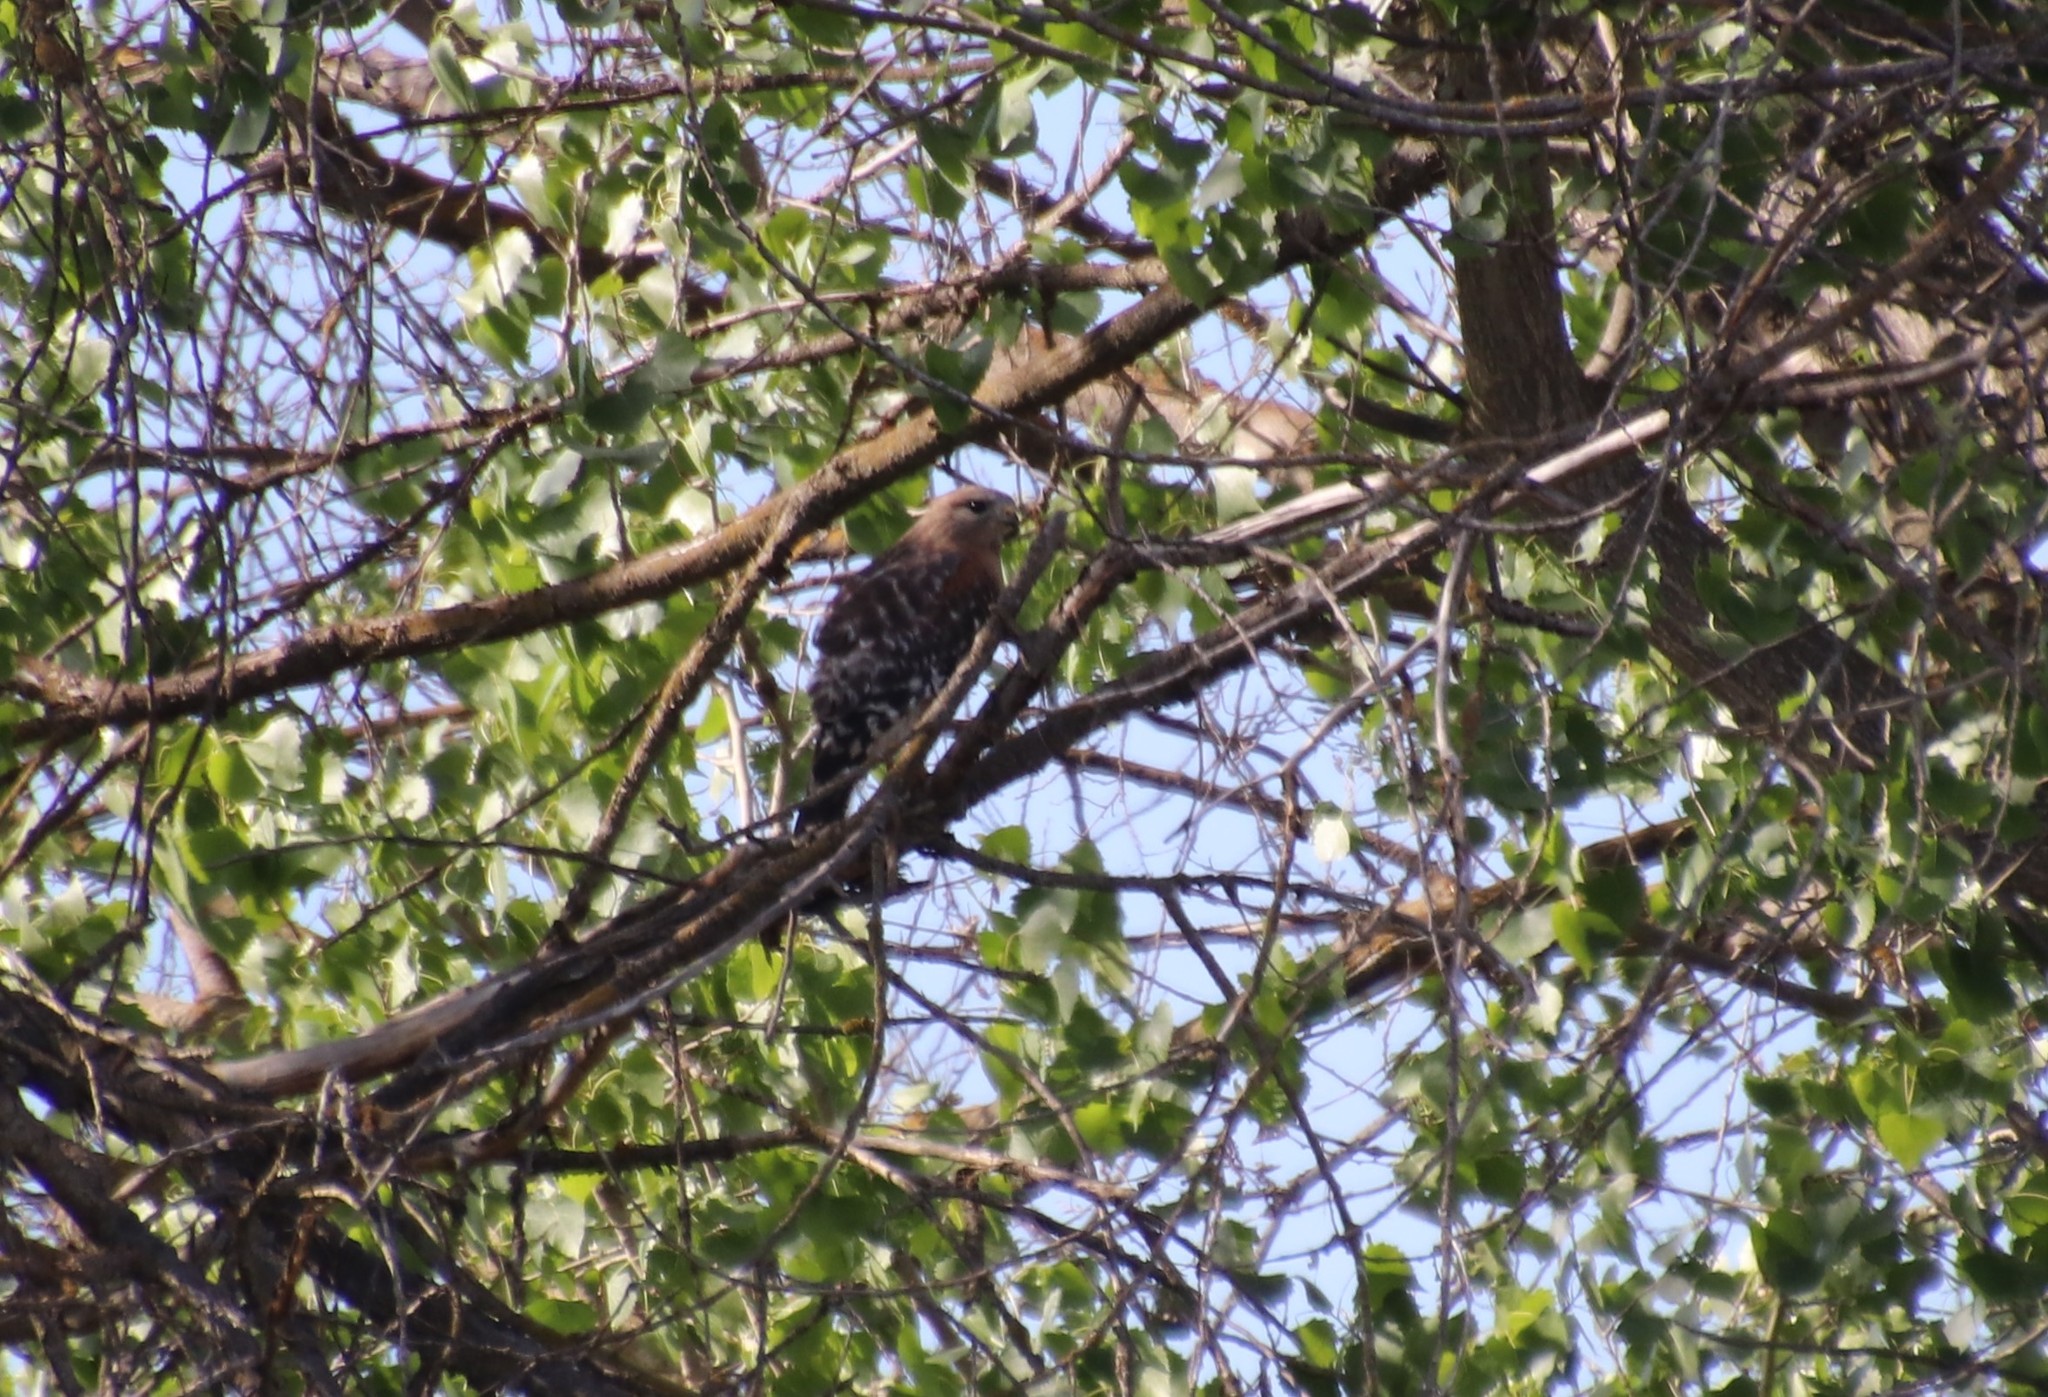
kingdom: Animalia
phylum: Chordata
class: Aves
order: Accipitriformes
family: Accipitridae
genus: Buteo
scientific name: Buteo lineatus
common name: Red-shouldered hawk
